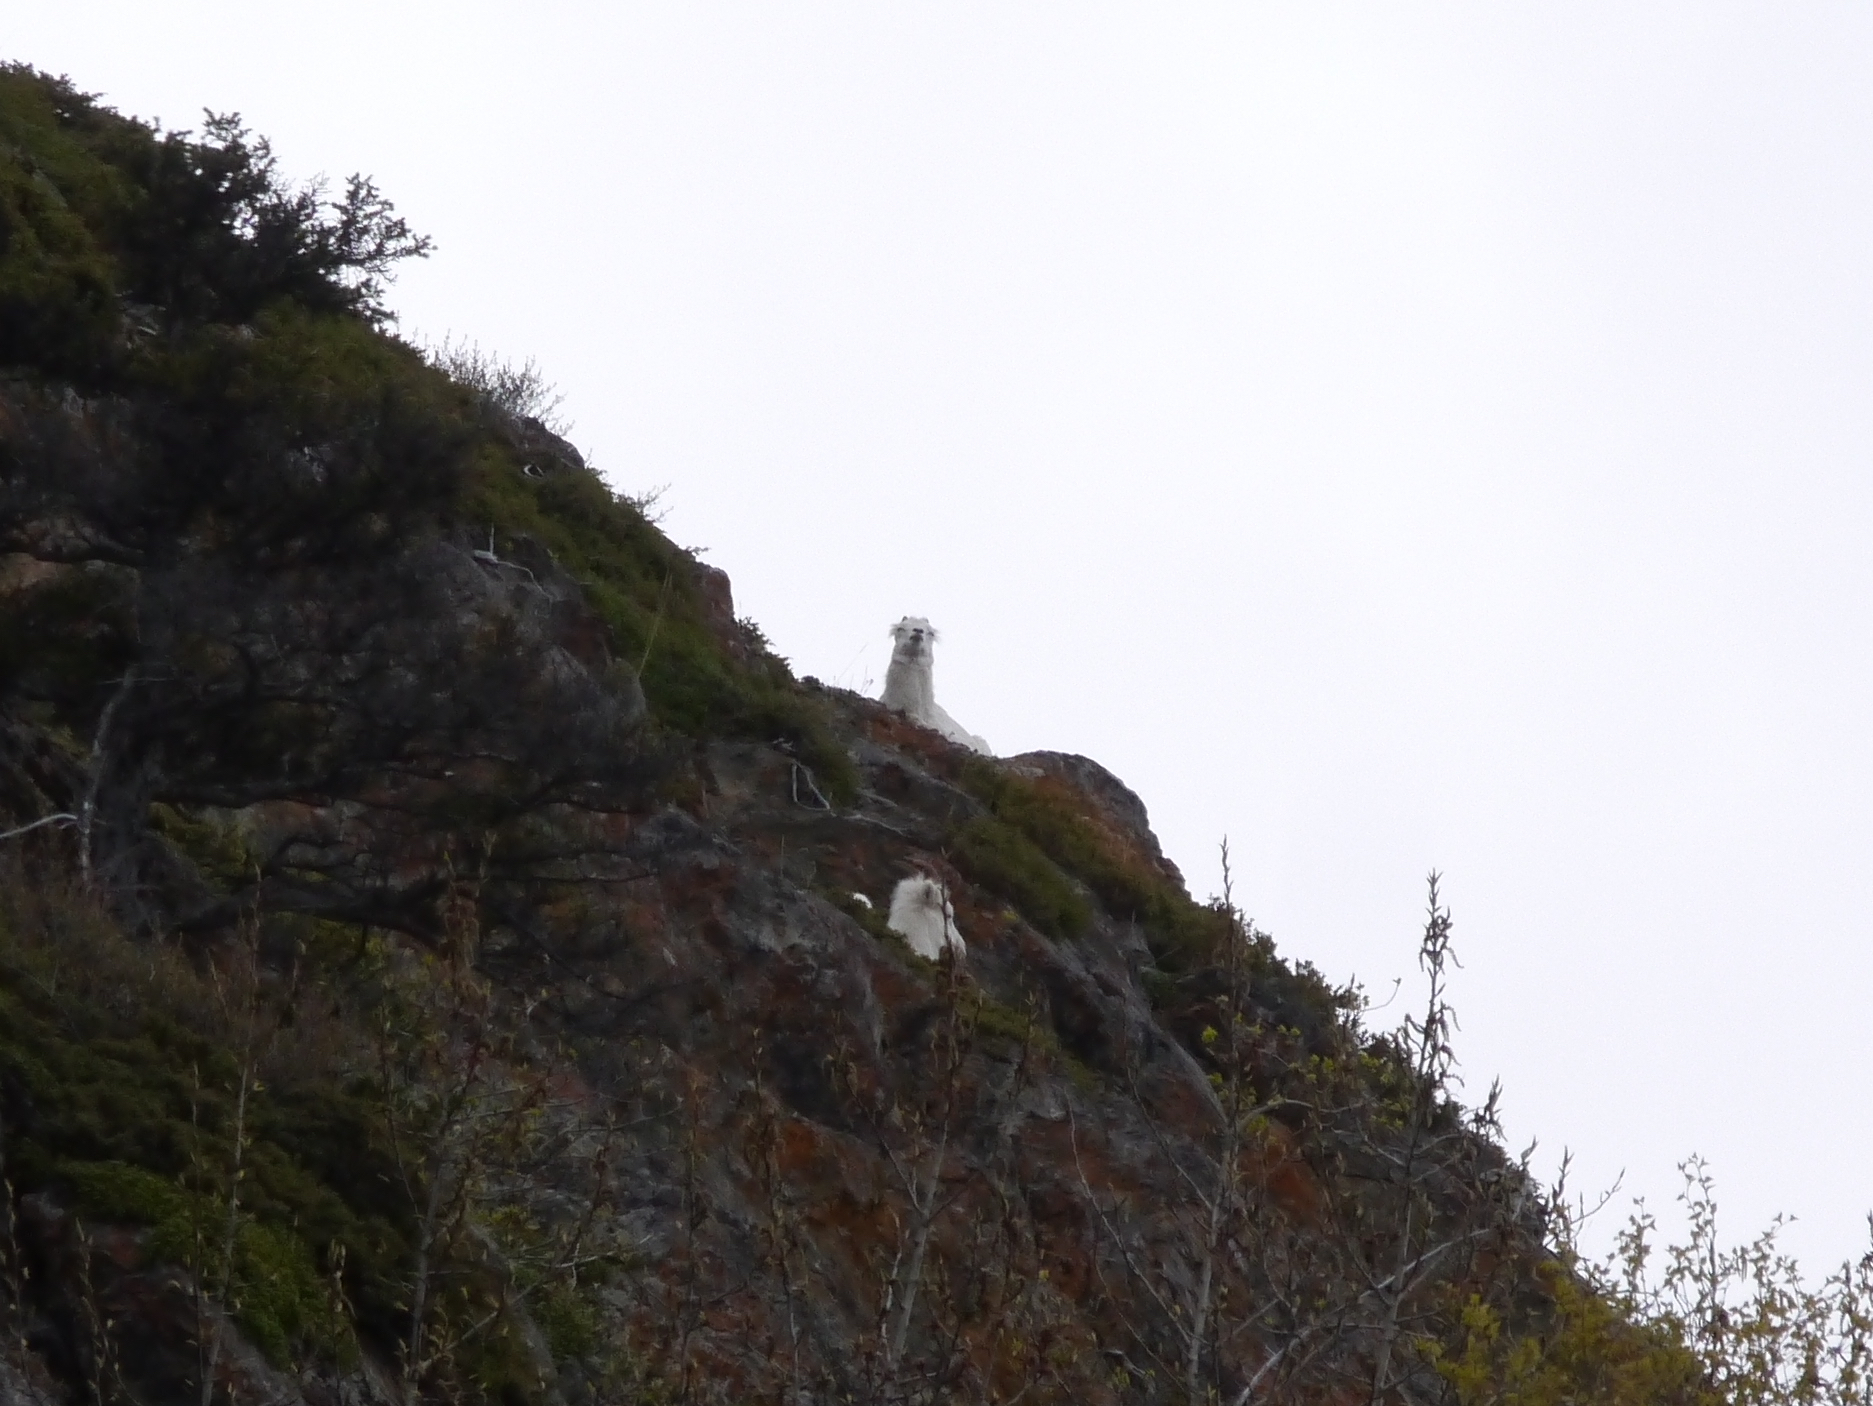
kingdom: Animalia
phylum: Chordata
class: Mammalia
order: Artiodactyla
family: Bovidae
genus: Ovis
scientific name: Ovis dalli
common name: Dall's sheep
